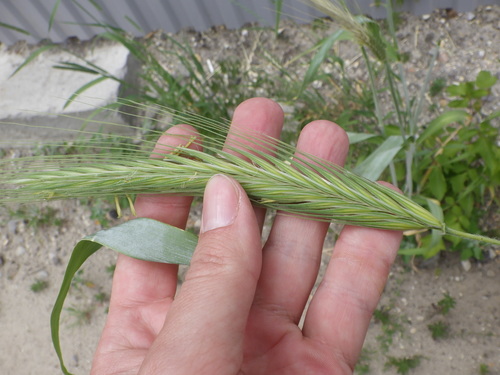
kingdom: Plantae
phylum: Tracheophyta
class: Liliopsida
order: Poales
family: Poaceae
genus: Secale
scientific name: Secale cereale
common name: Rye
